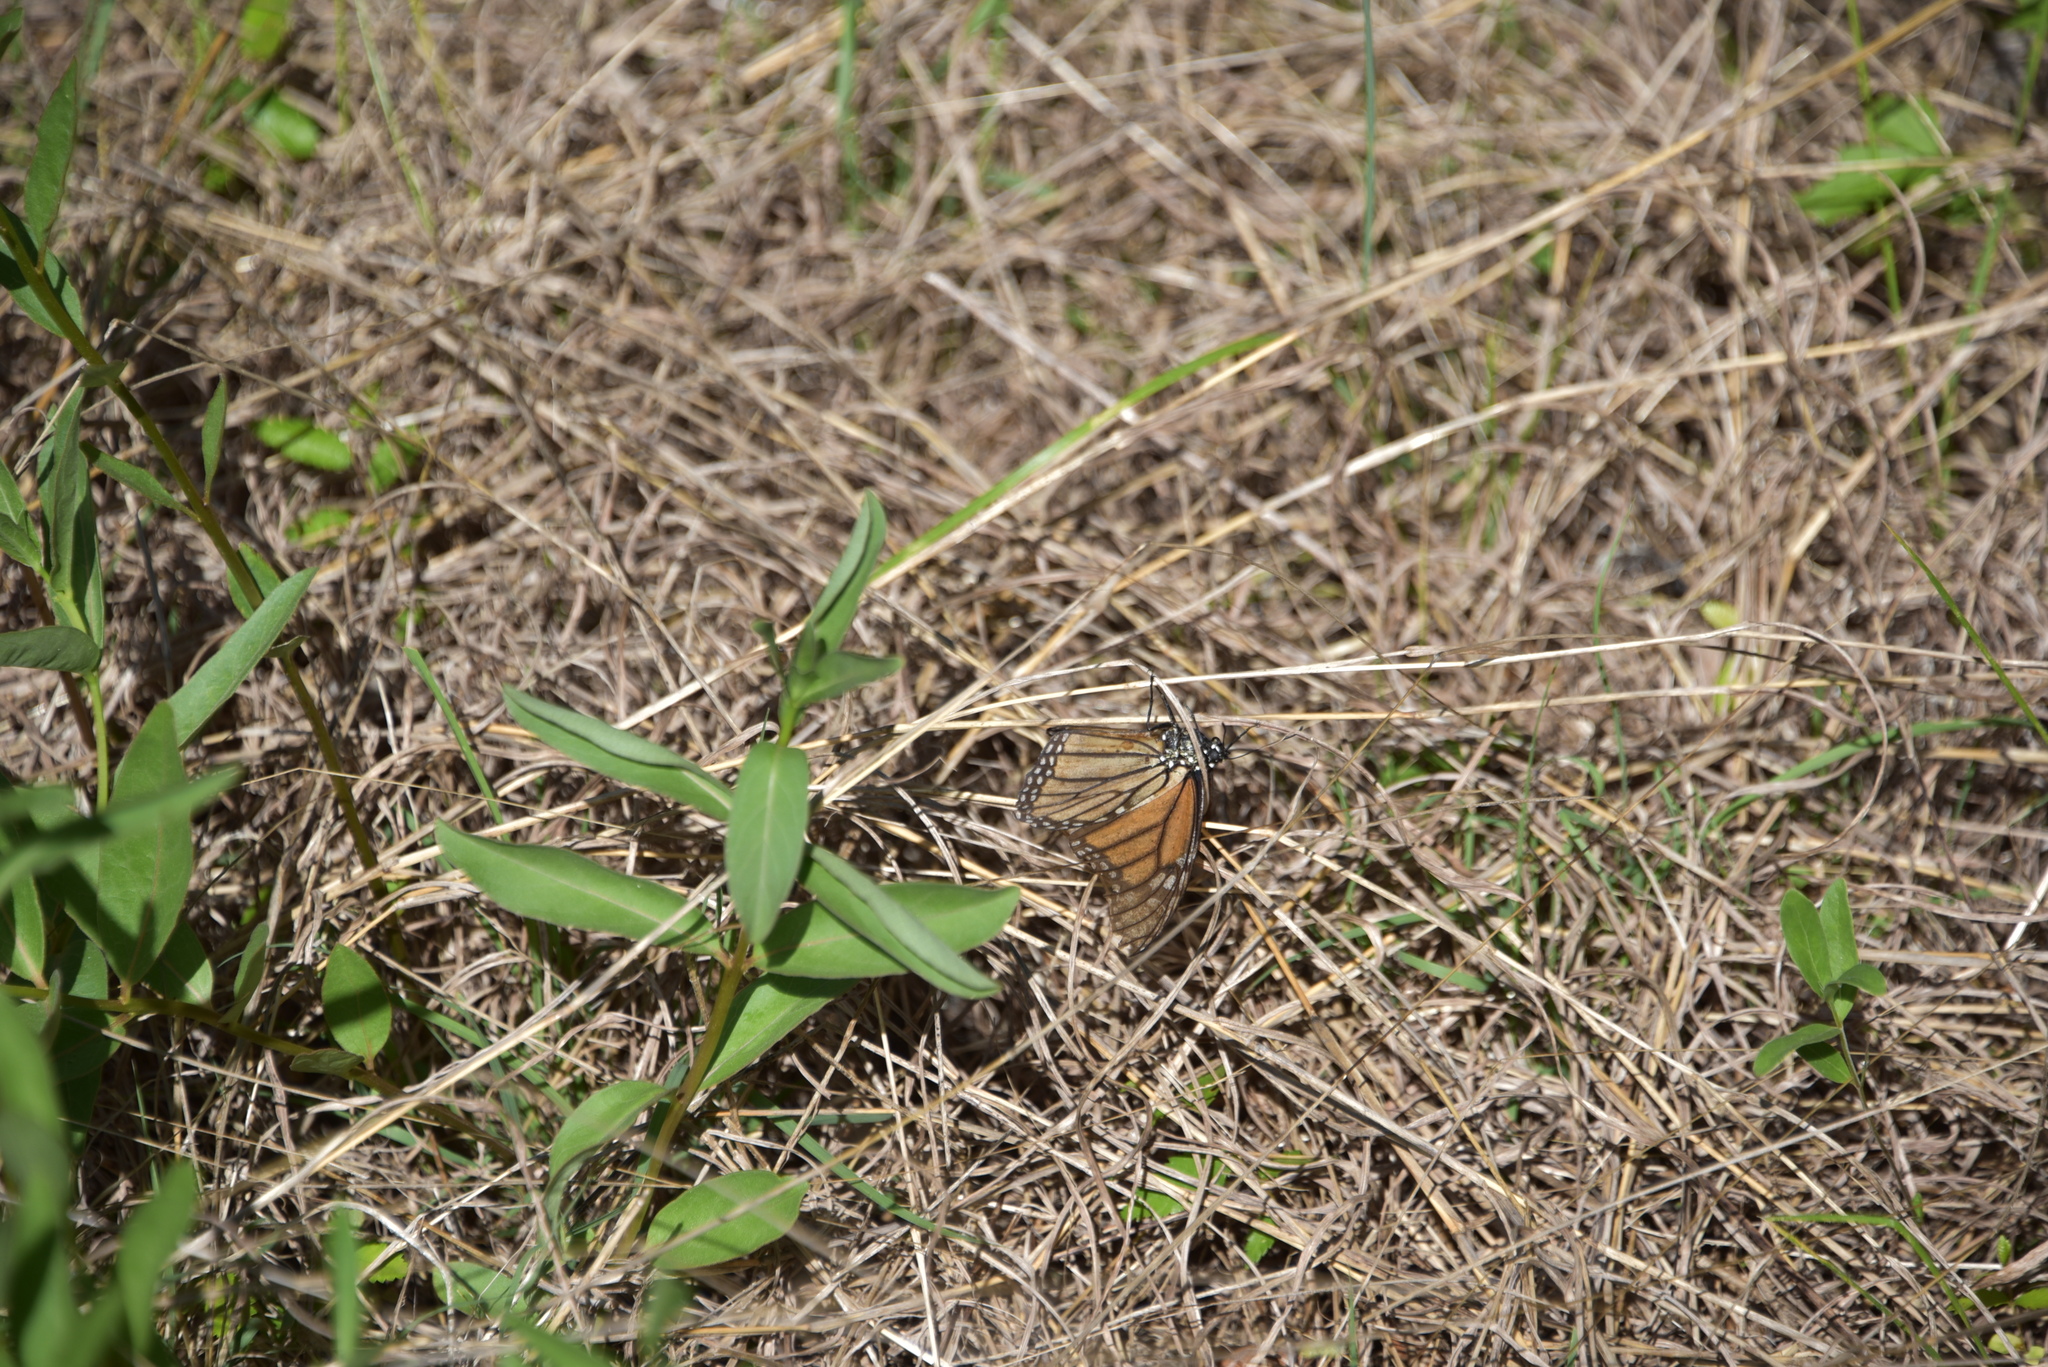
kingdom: Animalia
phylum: Arthropoda
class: Insecta
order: Lepidoptera
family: Nymphalidae
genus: Danaus
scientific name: Danaus plexippus
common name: Monarch
